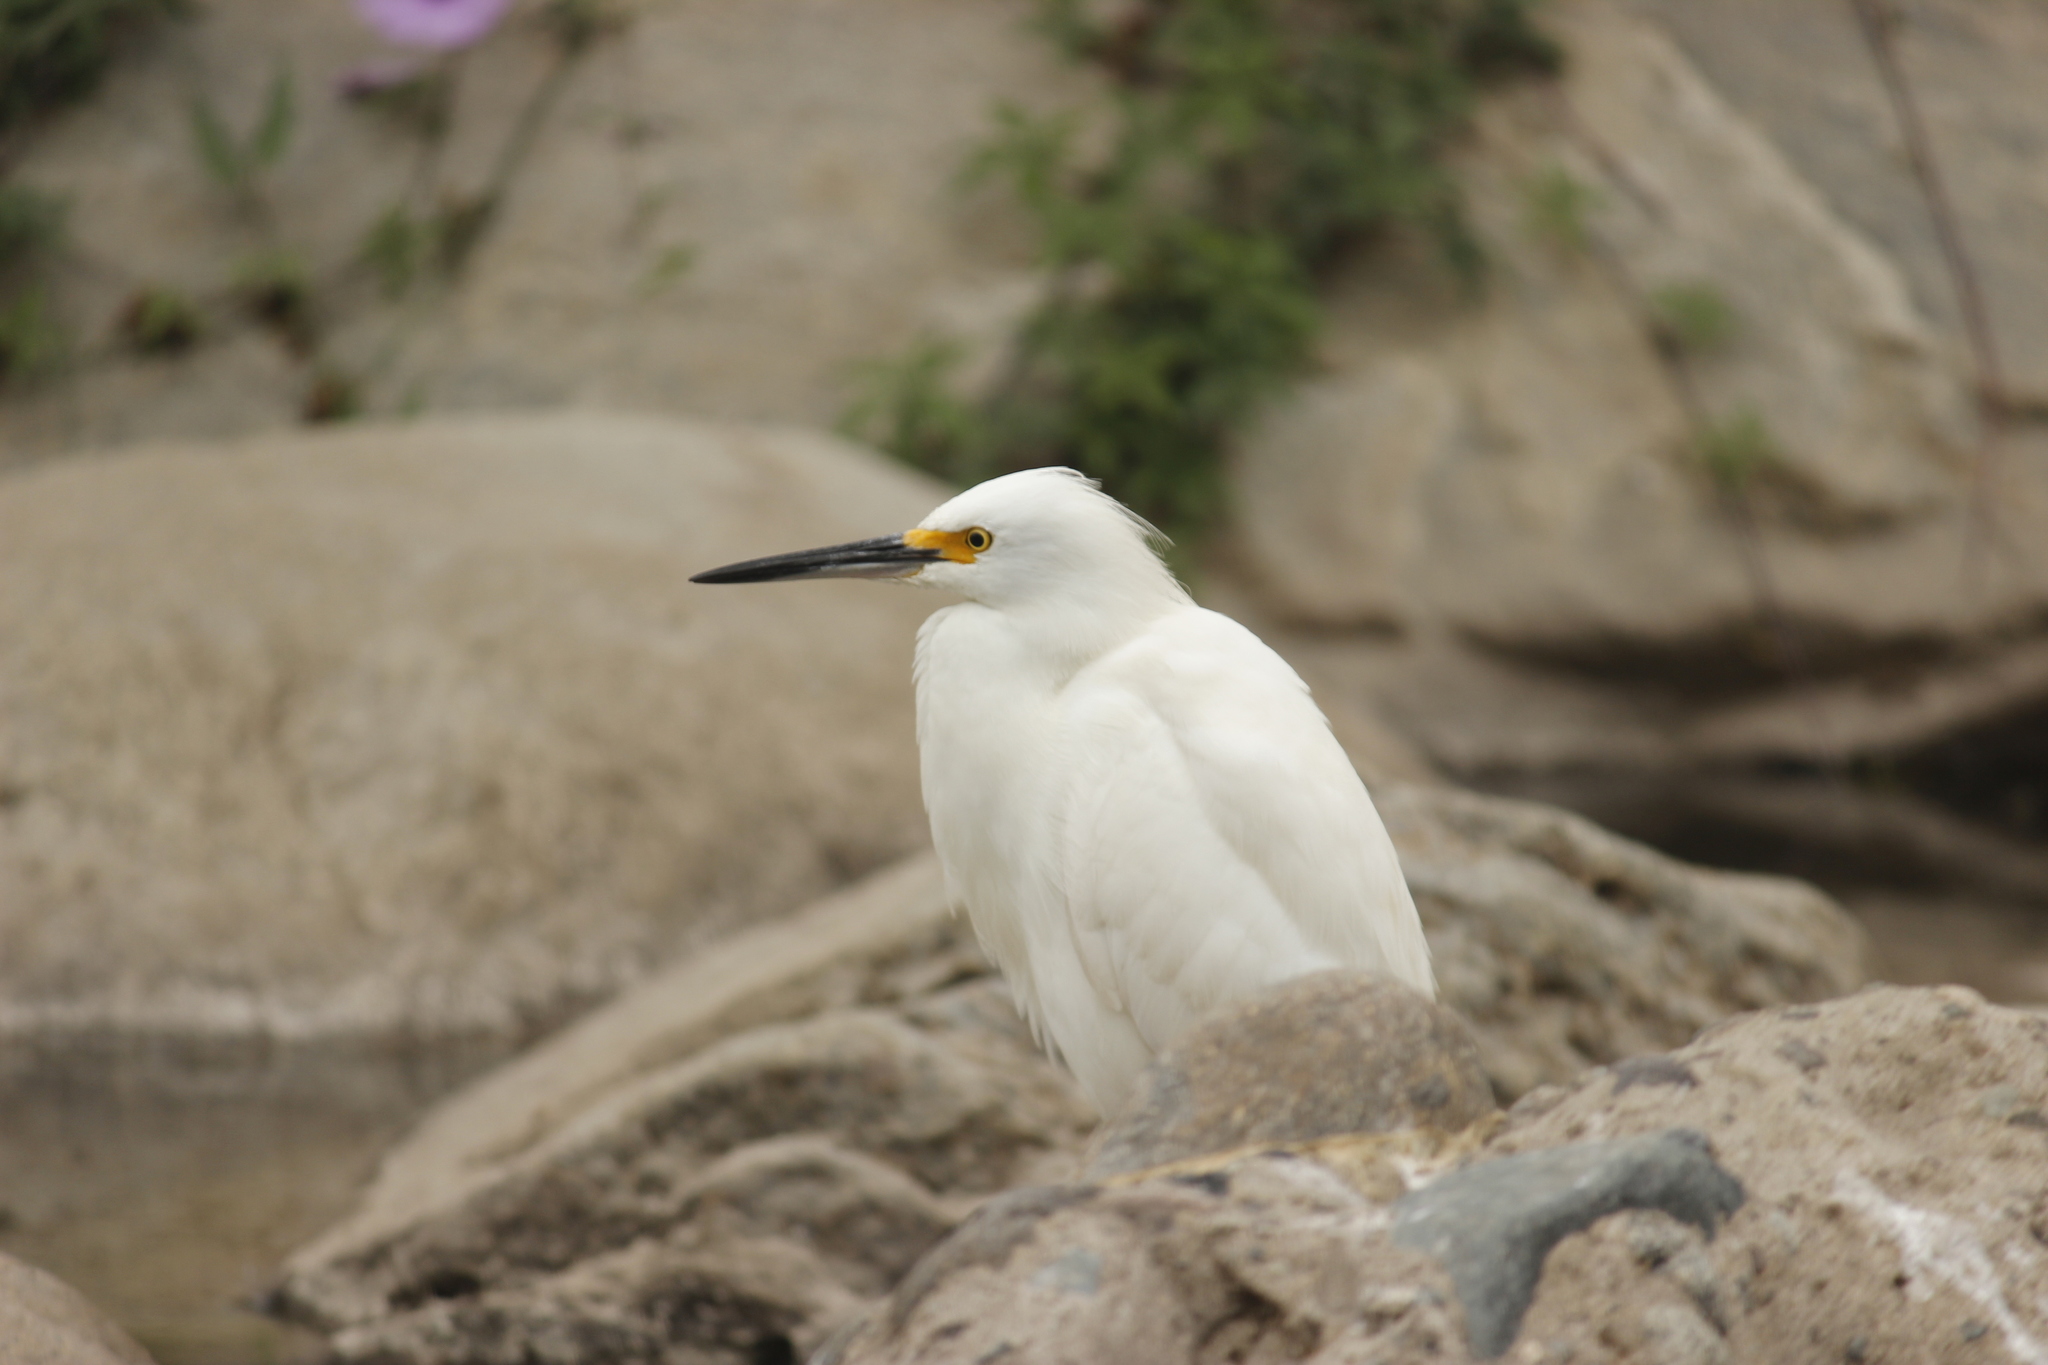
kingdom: Animalia
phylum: Chordata
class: Aves
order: Pelecaniformes
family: Ardeidae
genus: Egretta
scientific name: Egretta thula
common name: Snowy egret
